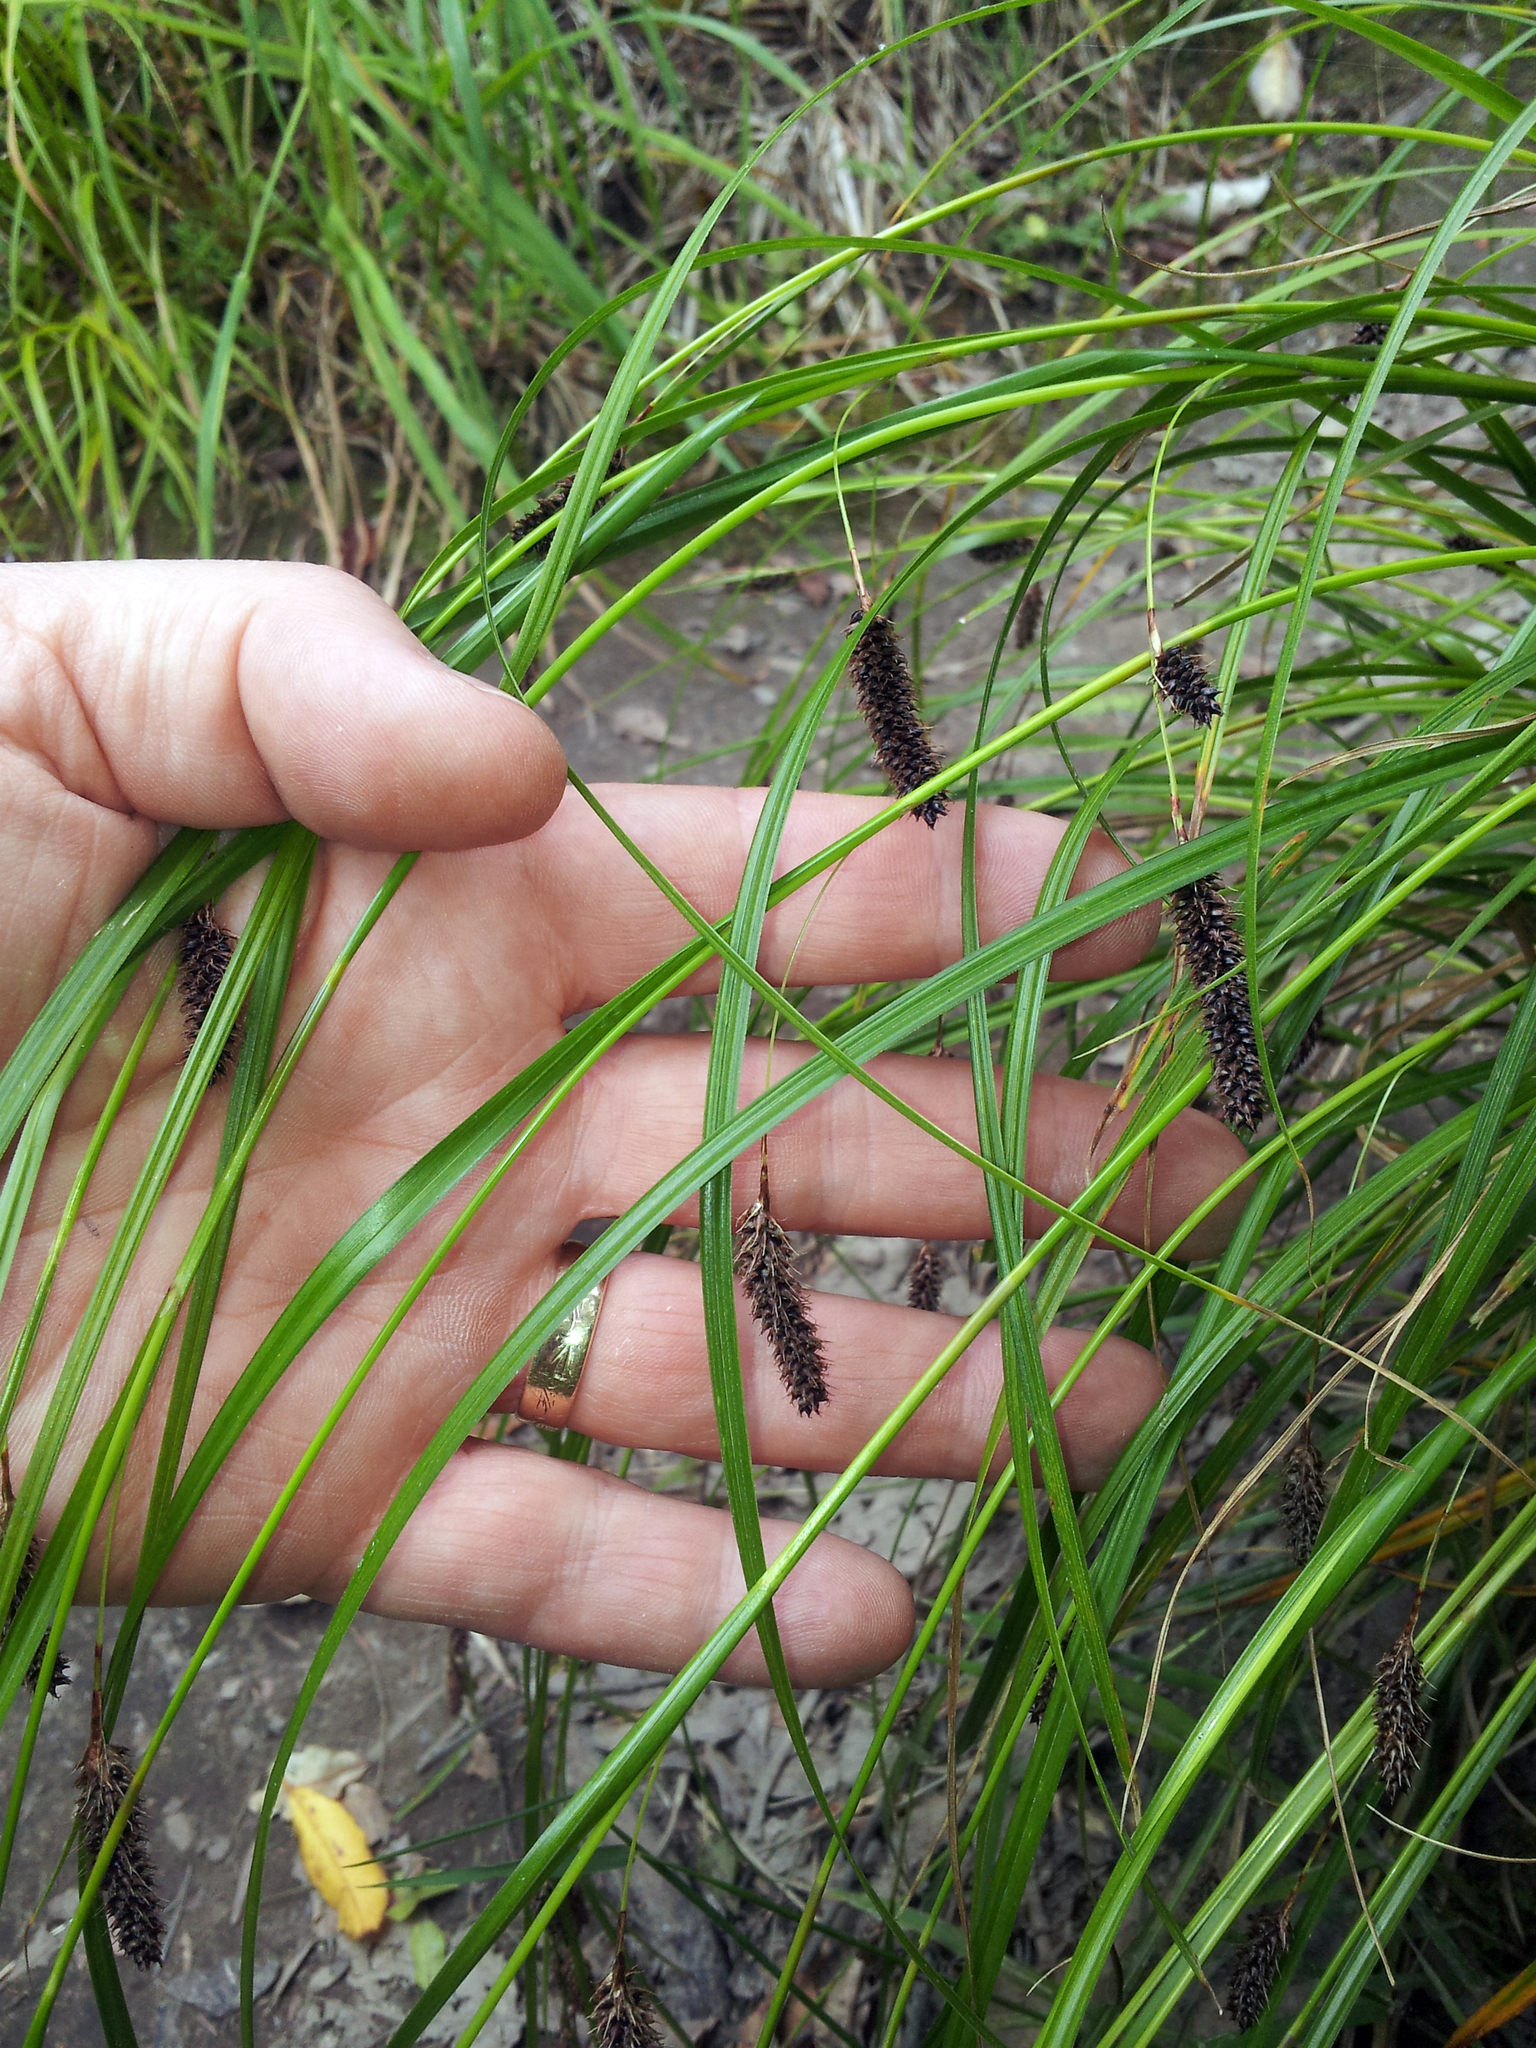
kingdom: Plantae
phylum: Tracheophyta
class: Liliopsida
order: Poales
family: Cyperaceae
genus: Carex
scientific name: Carex solandri
